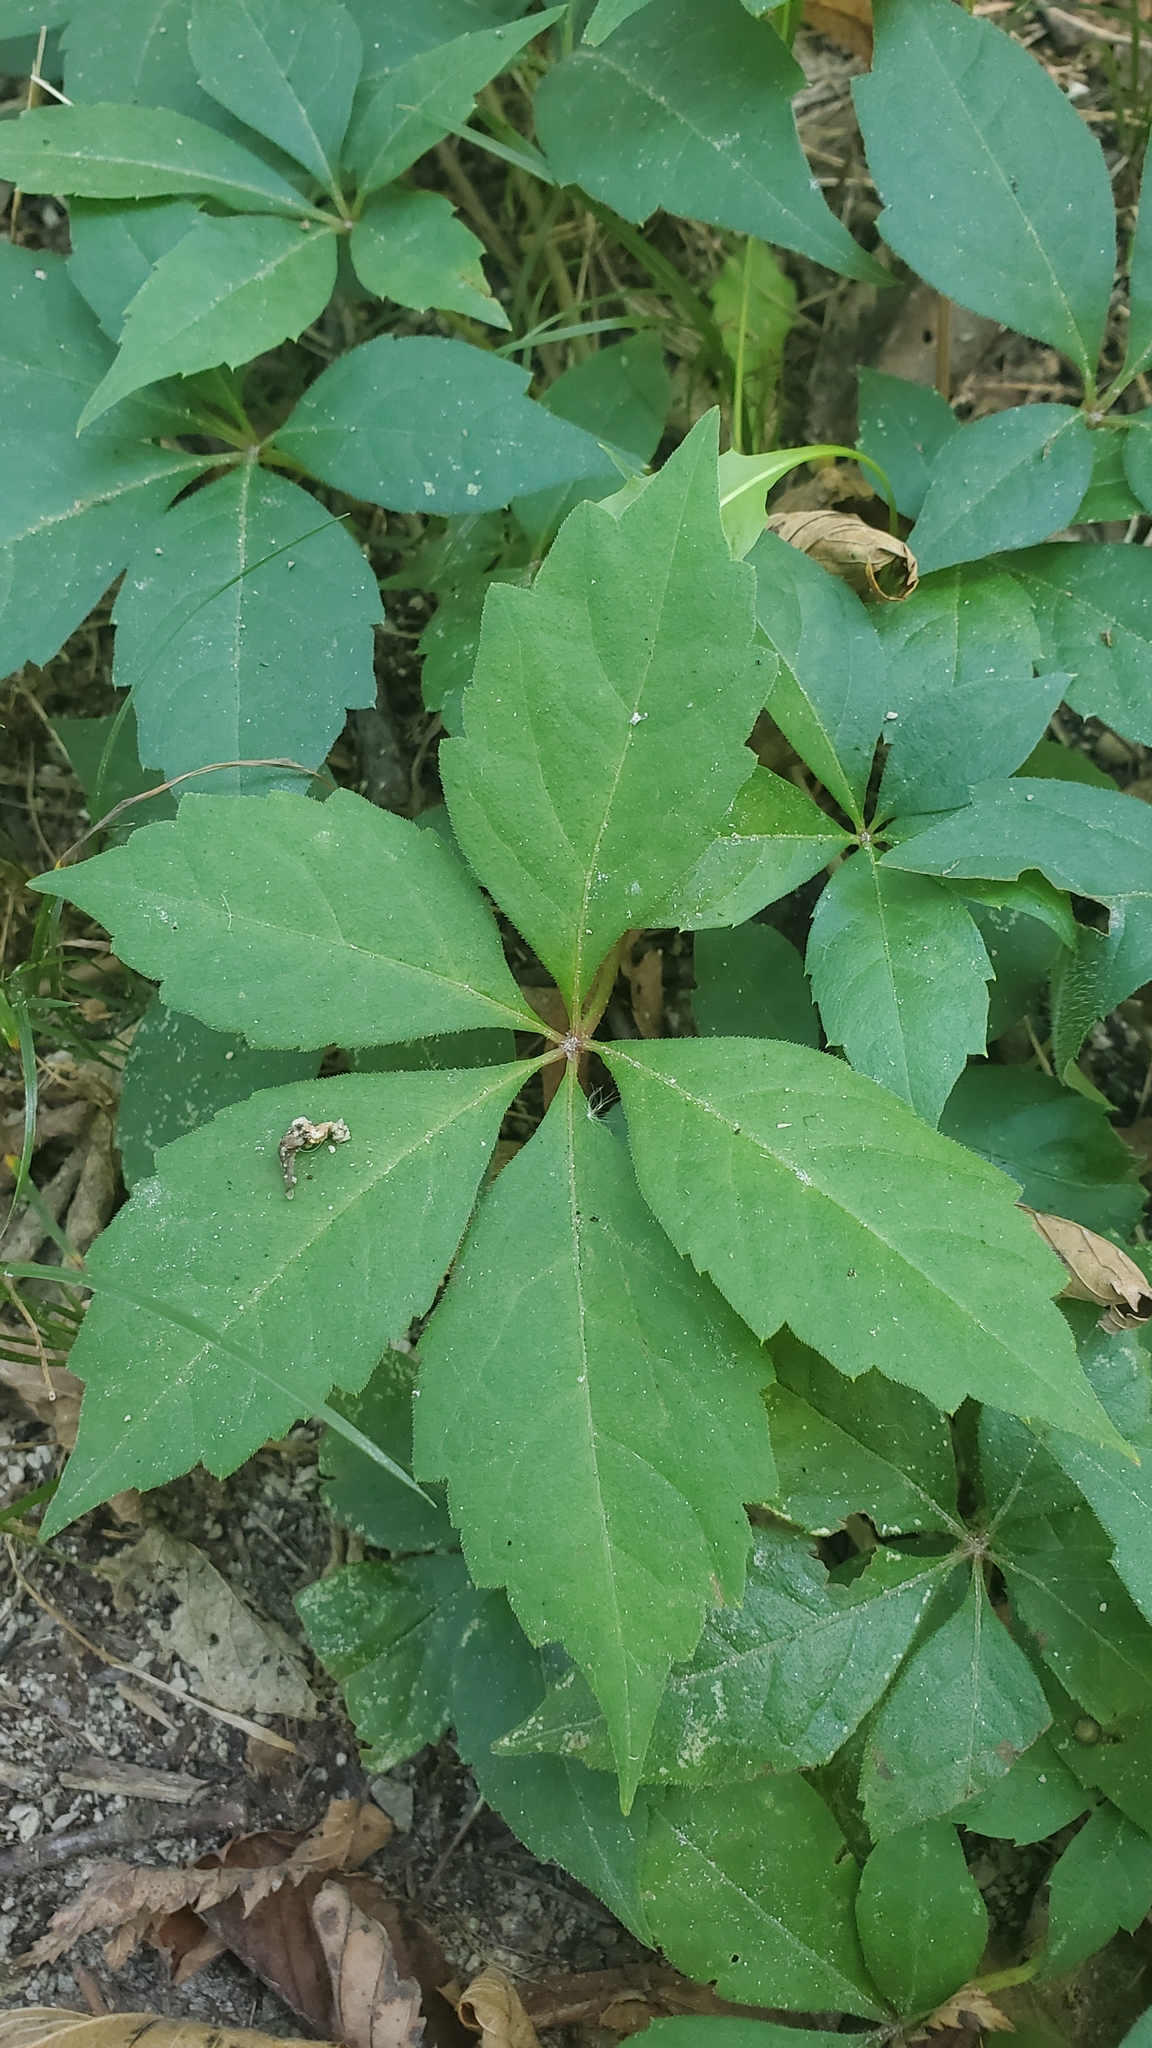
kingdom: Plantae
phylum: Tracheophyta
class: Magnoliopsida
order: Vitales
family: Vitaceae
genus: Parthenocissus
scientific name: Parthenocissus quinquefolia
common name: Virginia-creeper
